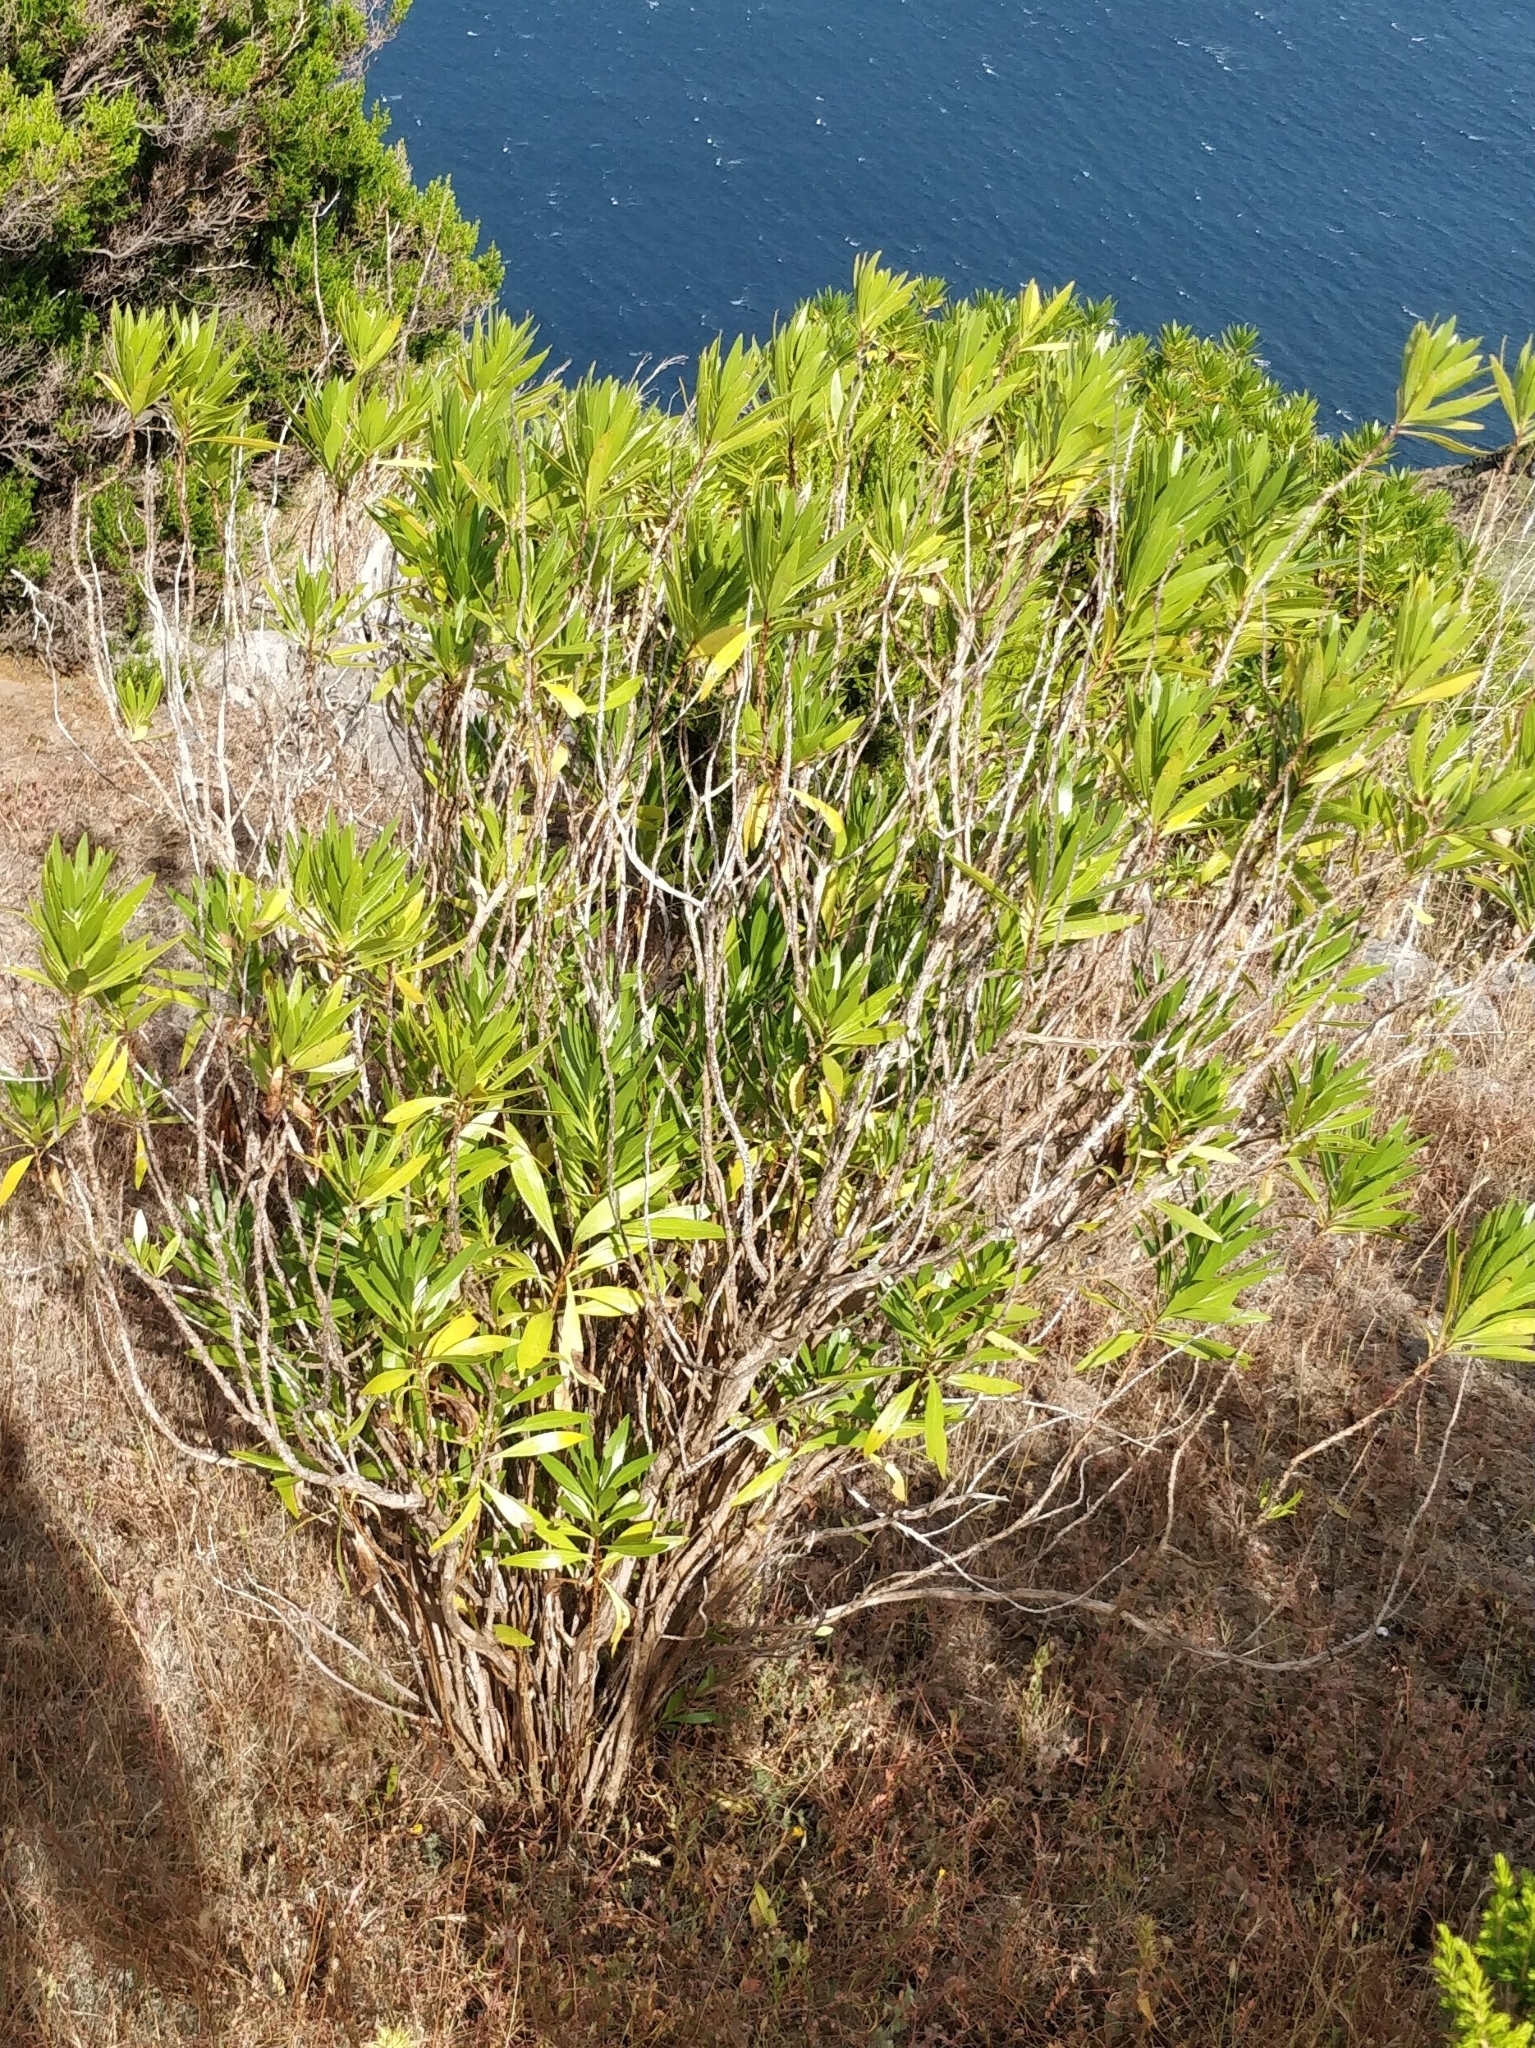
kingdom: Plantae
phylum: Tracheophyta
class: Magnoliopsida
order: Lamiales
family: Plantaginaceae
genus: Globularia
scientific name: Globularia salicina
